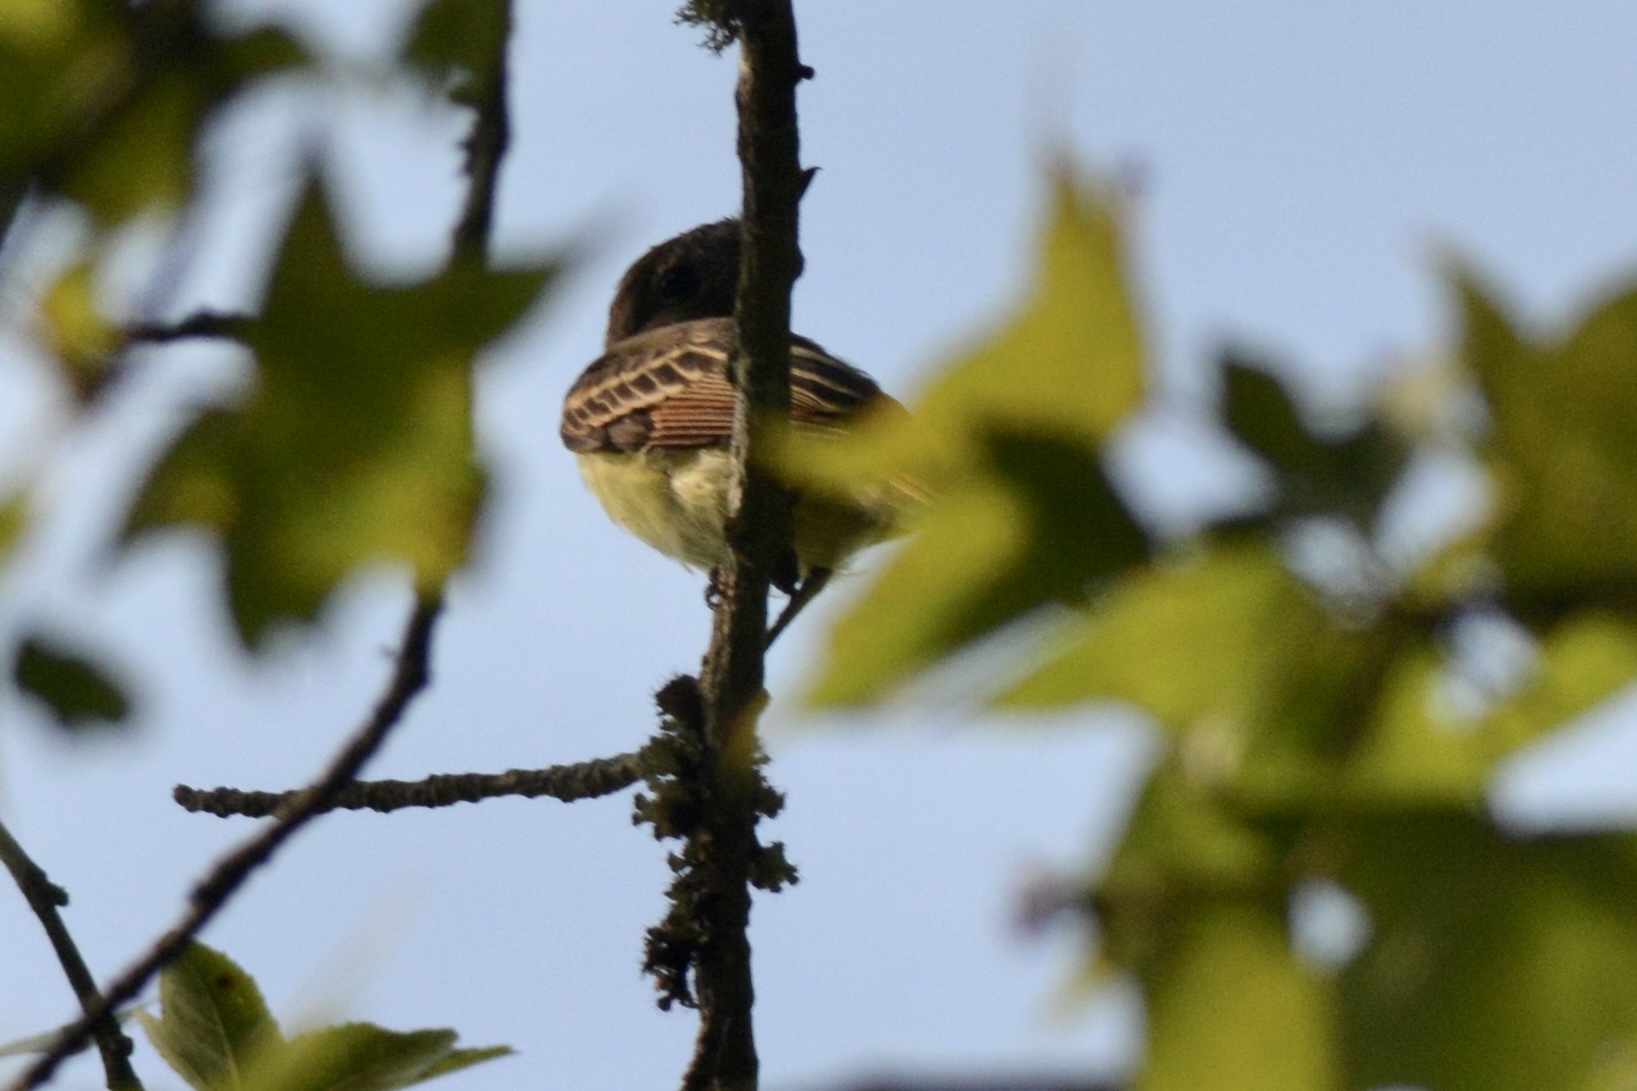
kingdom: Animalia
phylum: Chordata
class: Aves
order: Passeriformes
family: Tyrannidae
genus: Myiarchus
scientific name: Myiarchus crinitus
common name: Great crested flycatcher
